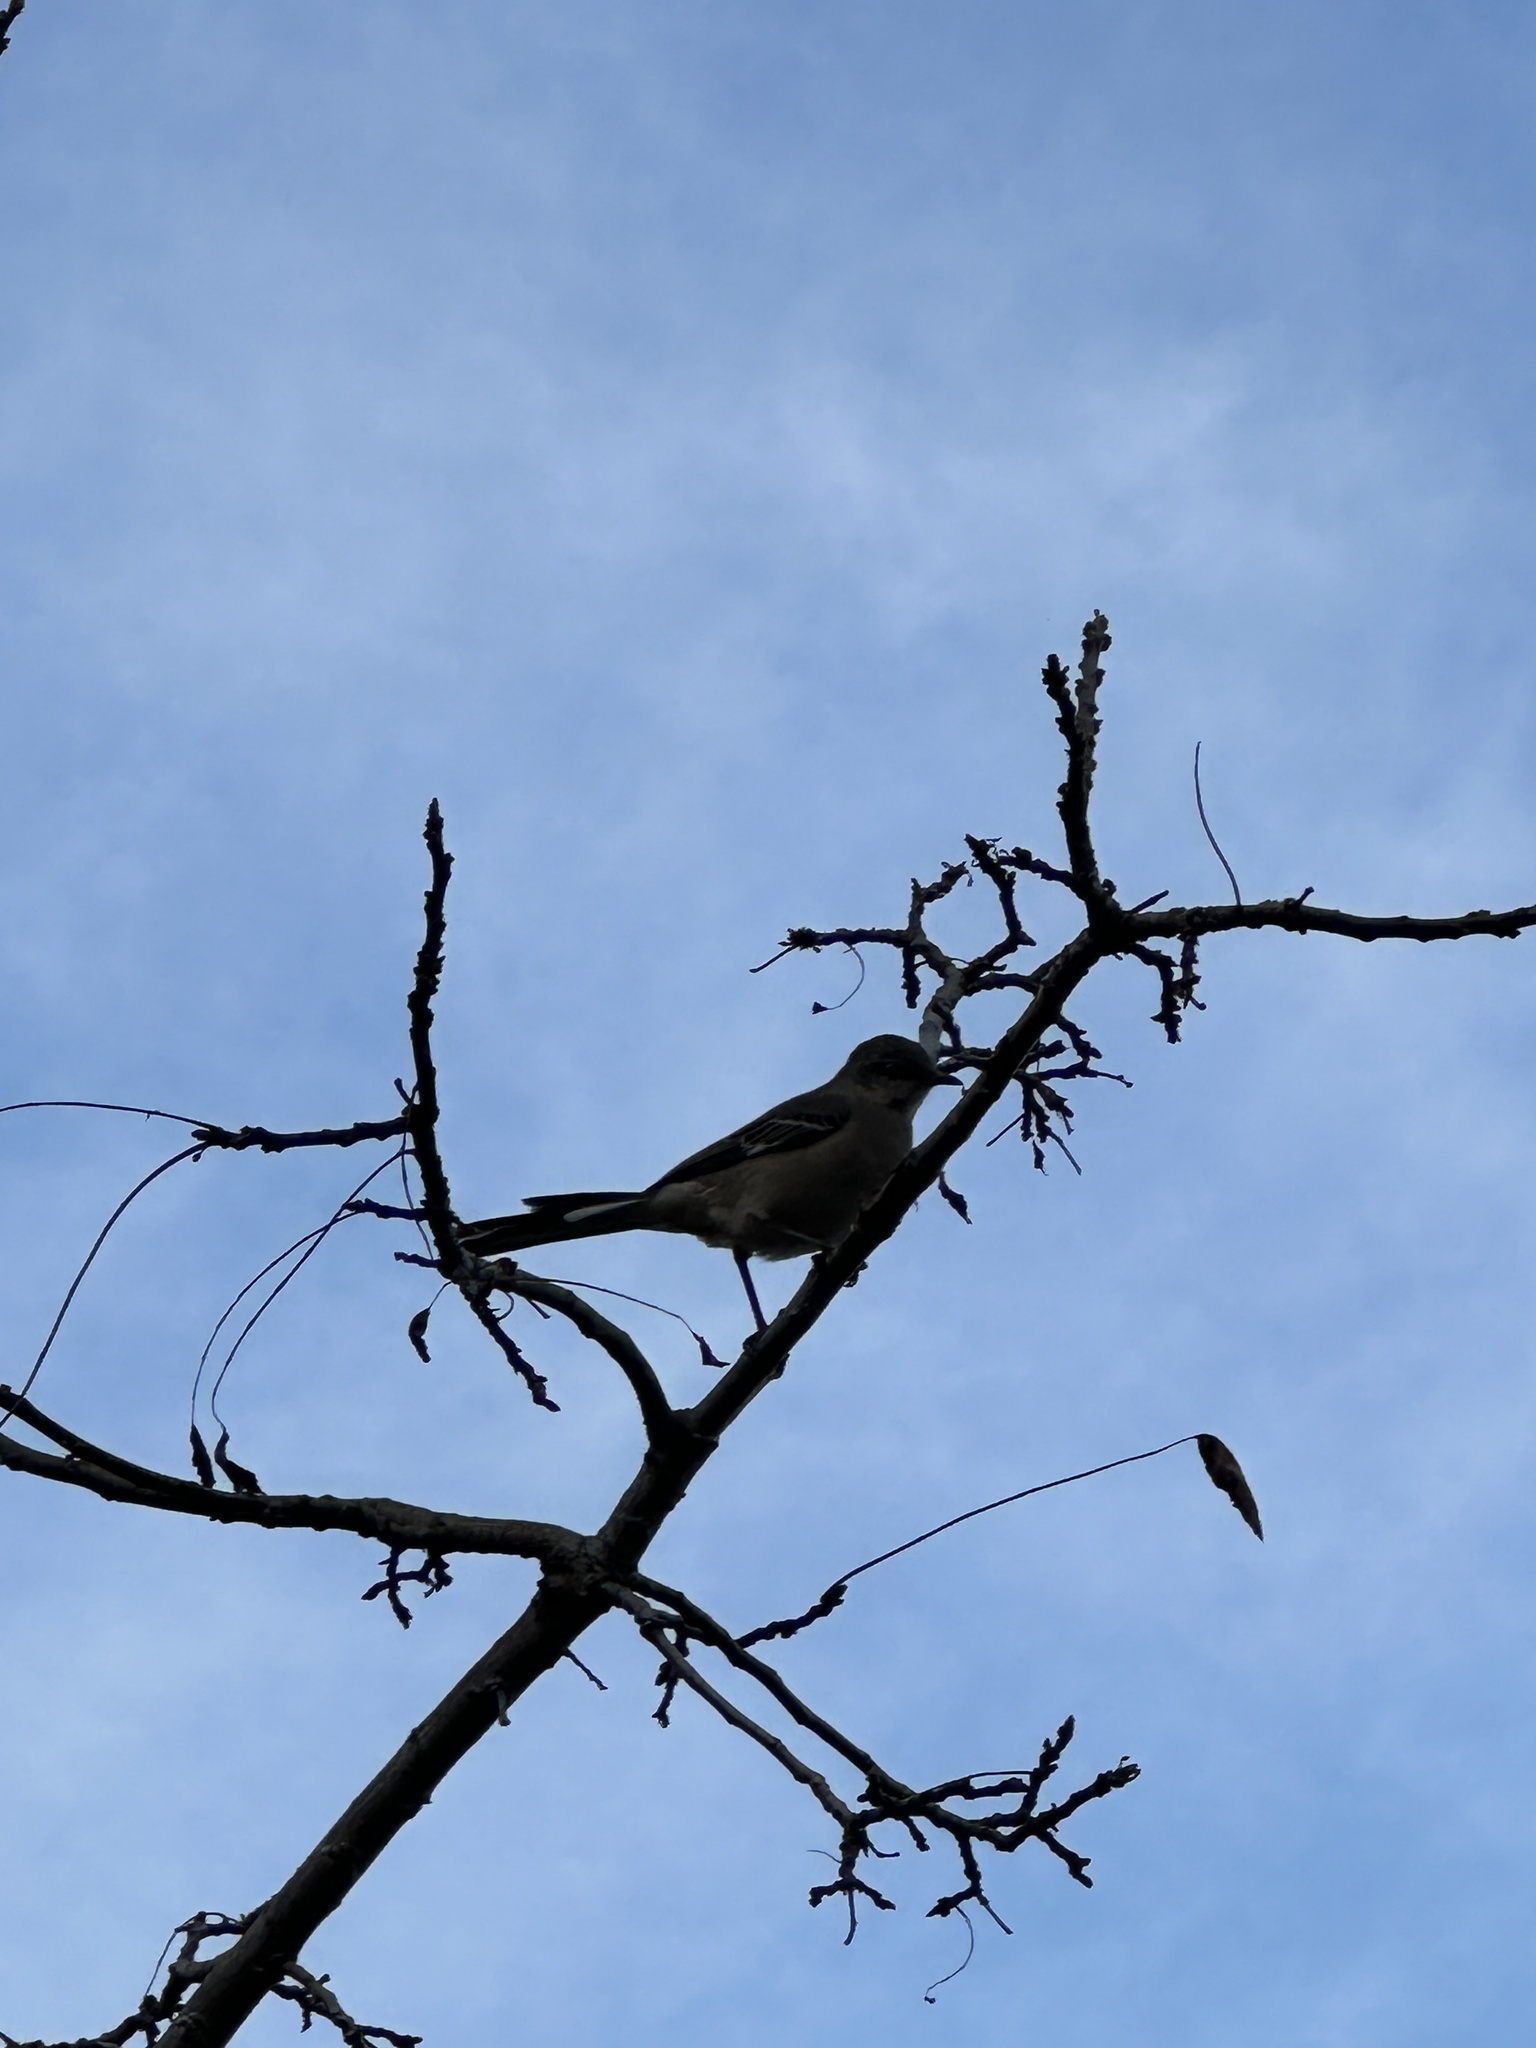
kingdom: Animalia
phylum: Chordata
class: Aves
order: Passeriformes
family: Mimidae
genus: Mimus
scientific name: Mimus polyglottos
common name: Northern mockingbird
